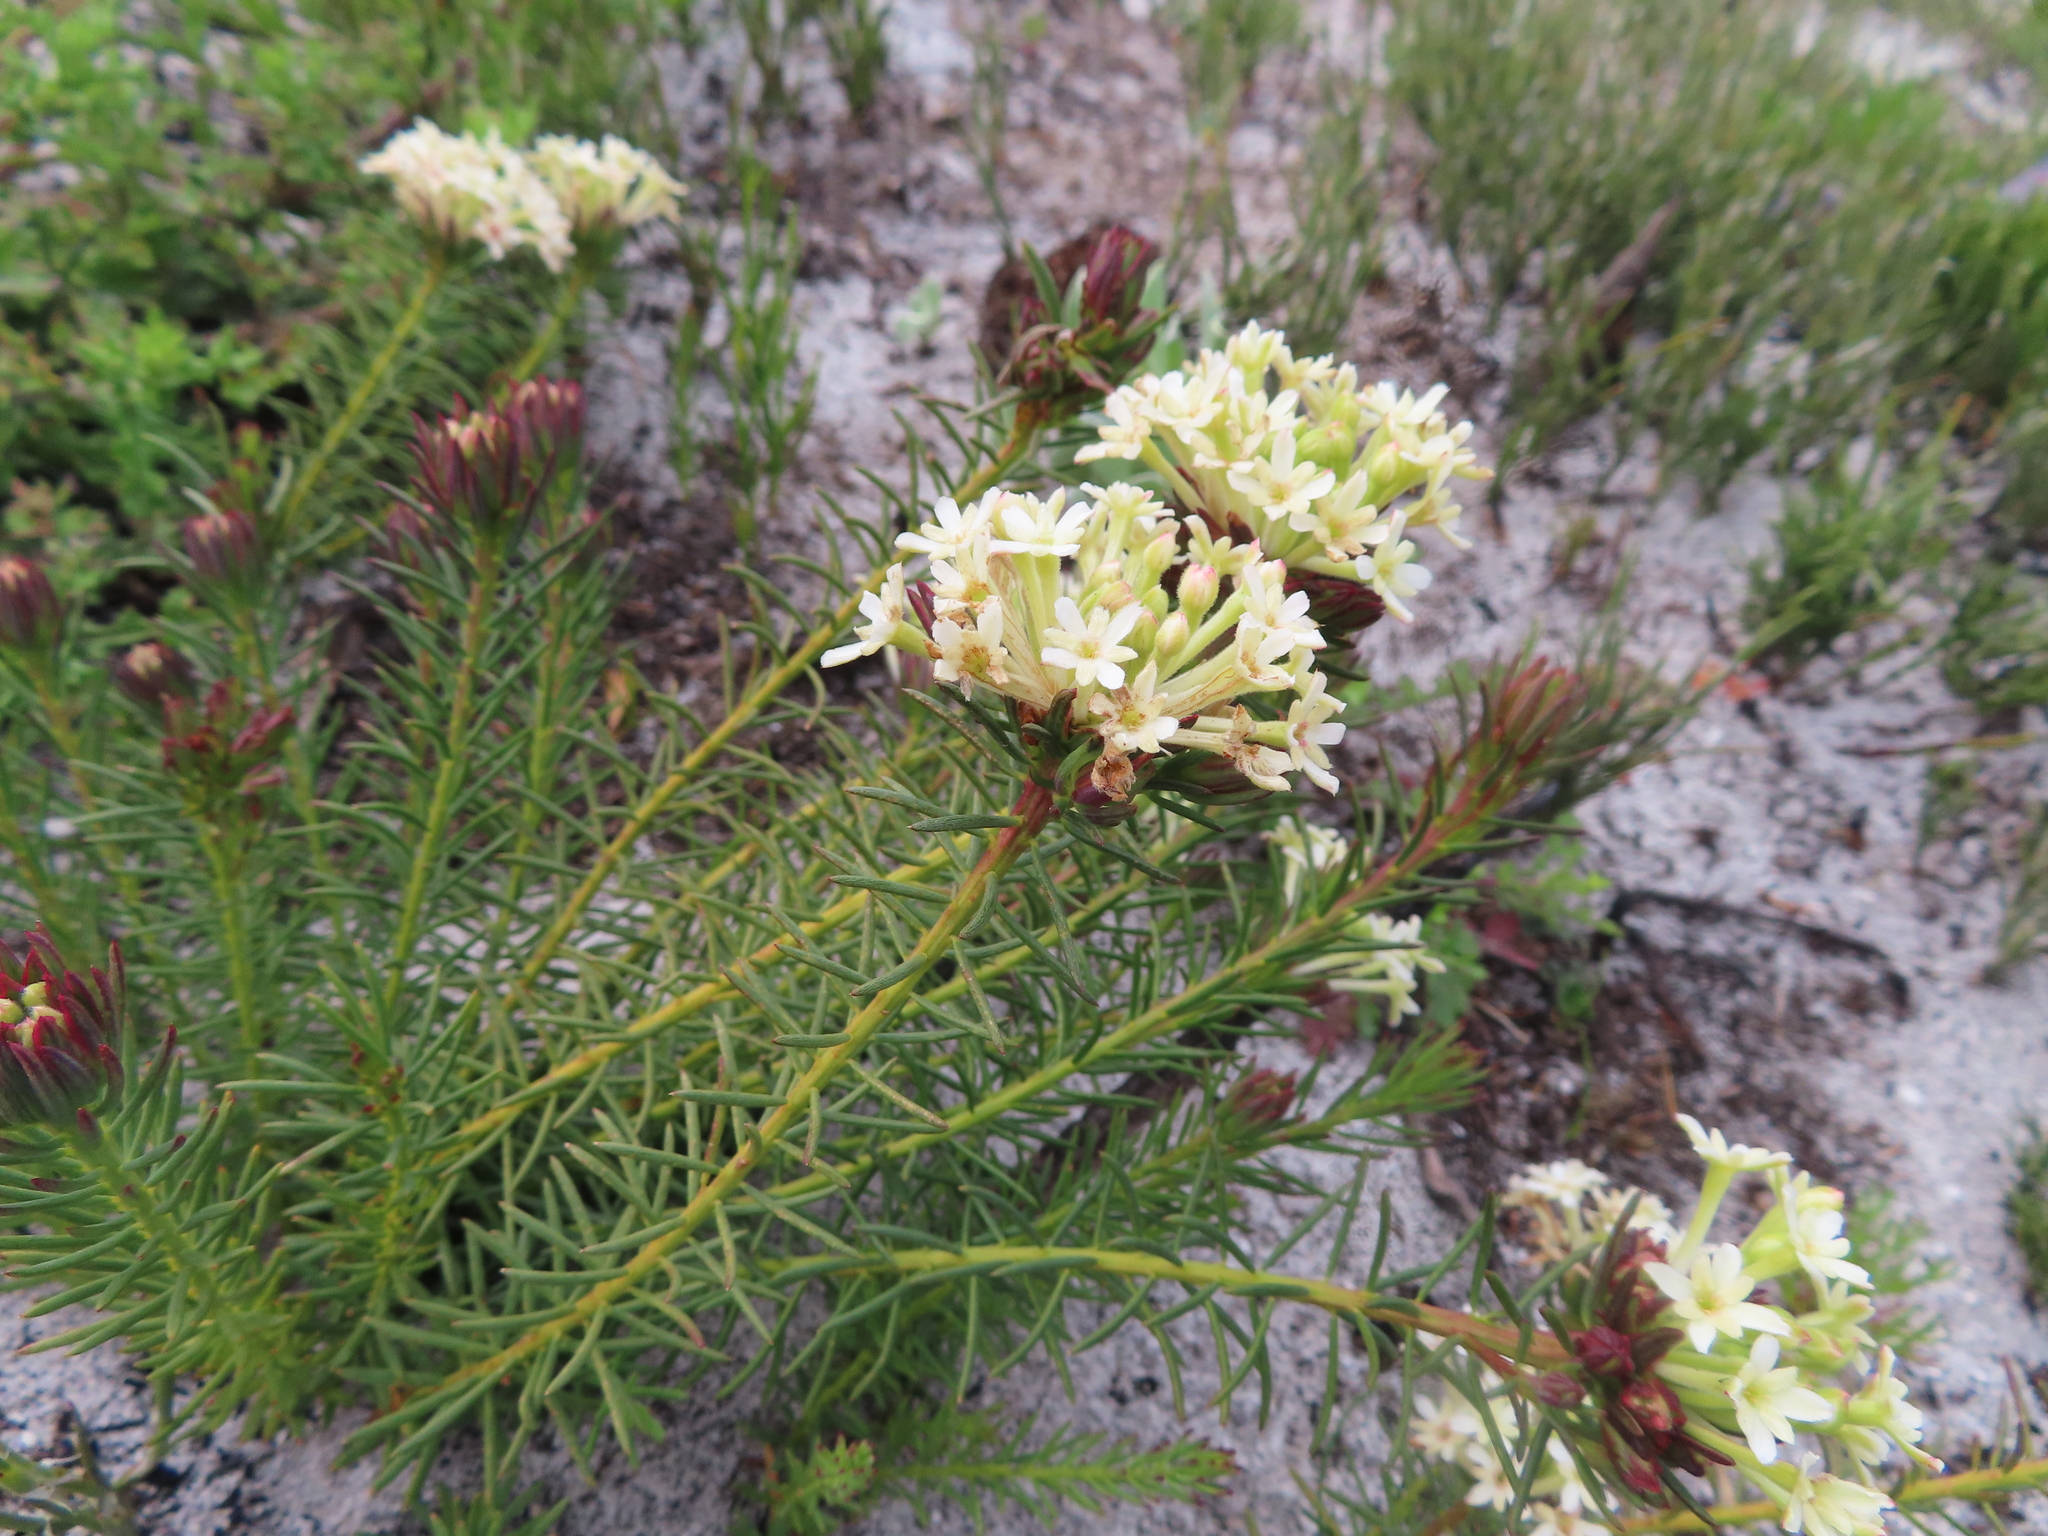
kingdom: Plantae
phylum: Tracheophyta
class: Magnoliopsida
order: Malvales
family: Thymelaeaceae
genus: Gnidia
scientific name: Gnidia pinifolia
